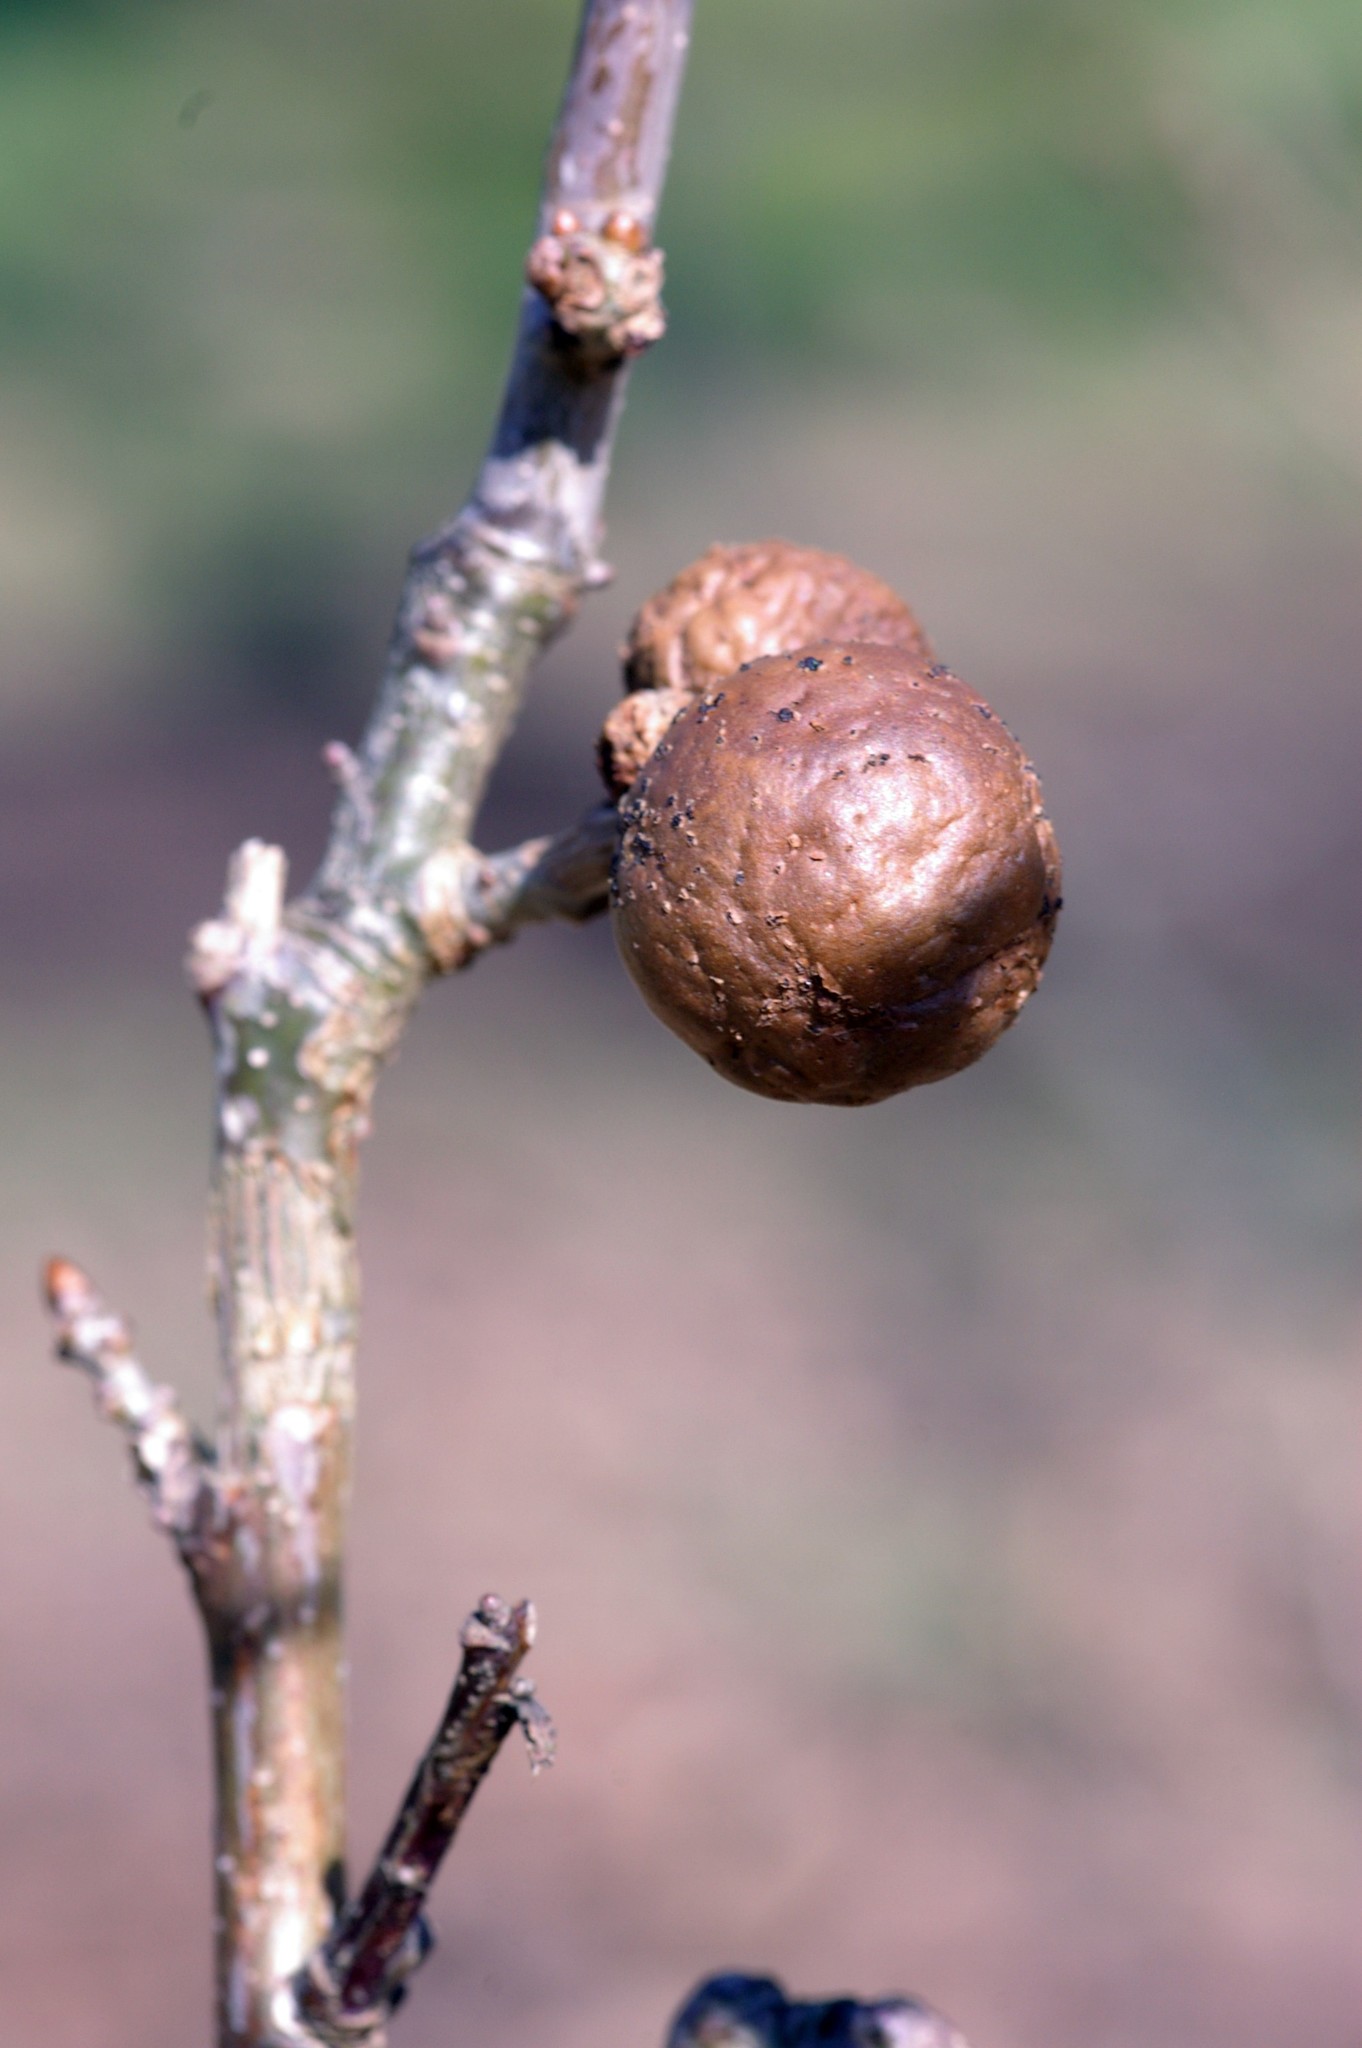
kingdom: Animalia
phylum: Arthropoda
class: Insecta
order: Hymenoptera
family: Cynipidae
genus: Andricus
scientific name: Andricus kollari
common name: Marble gall
